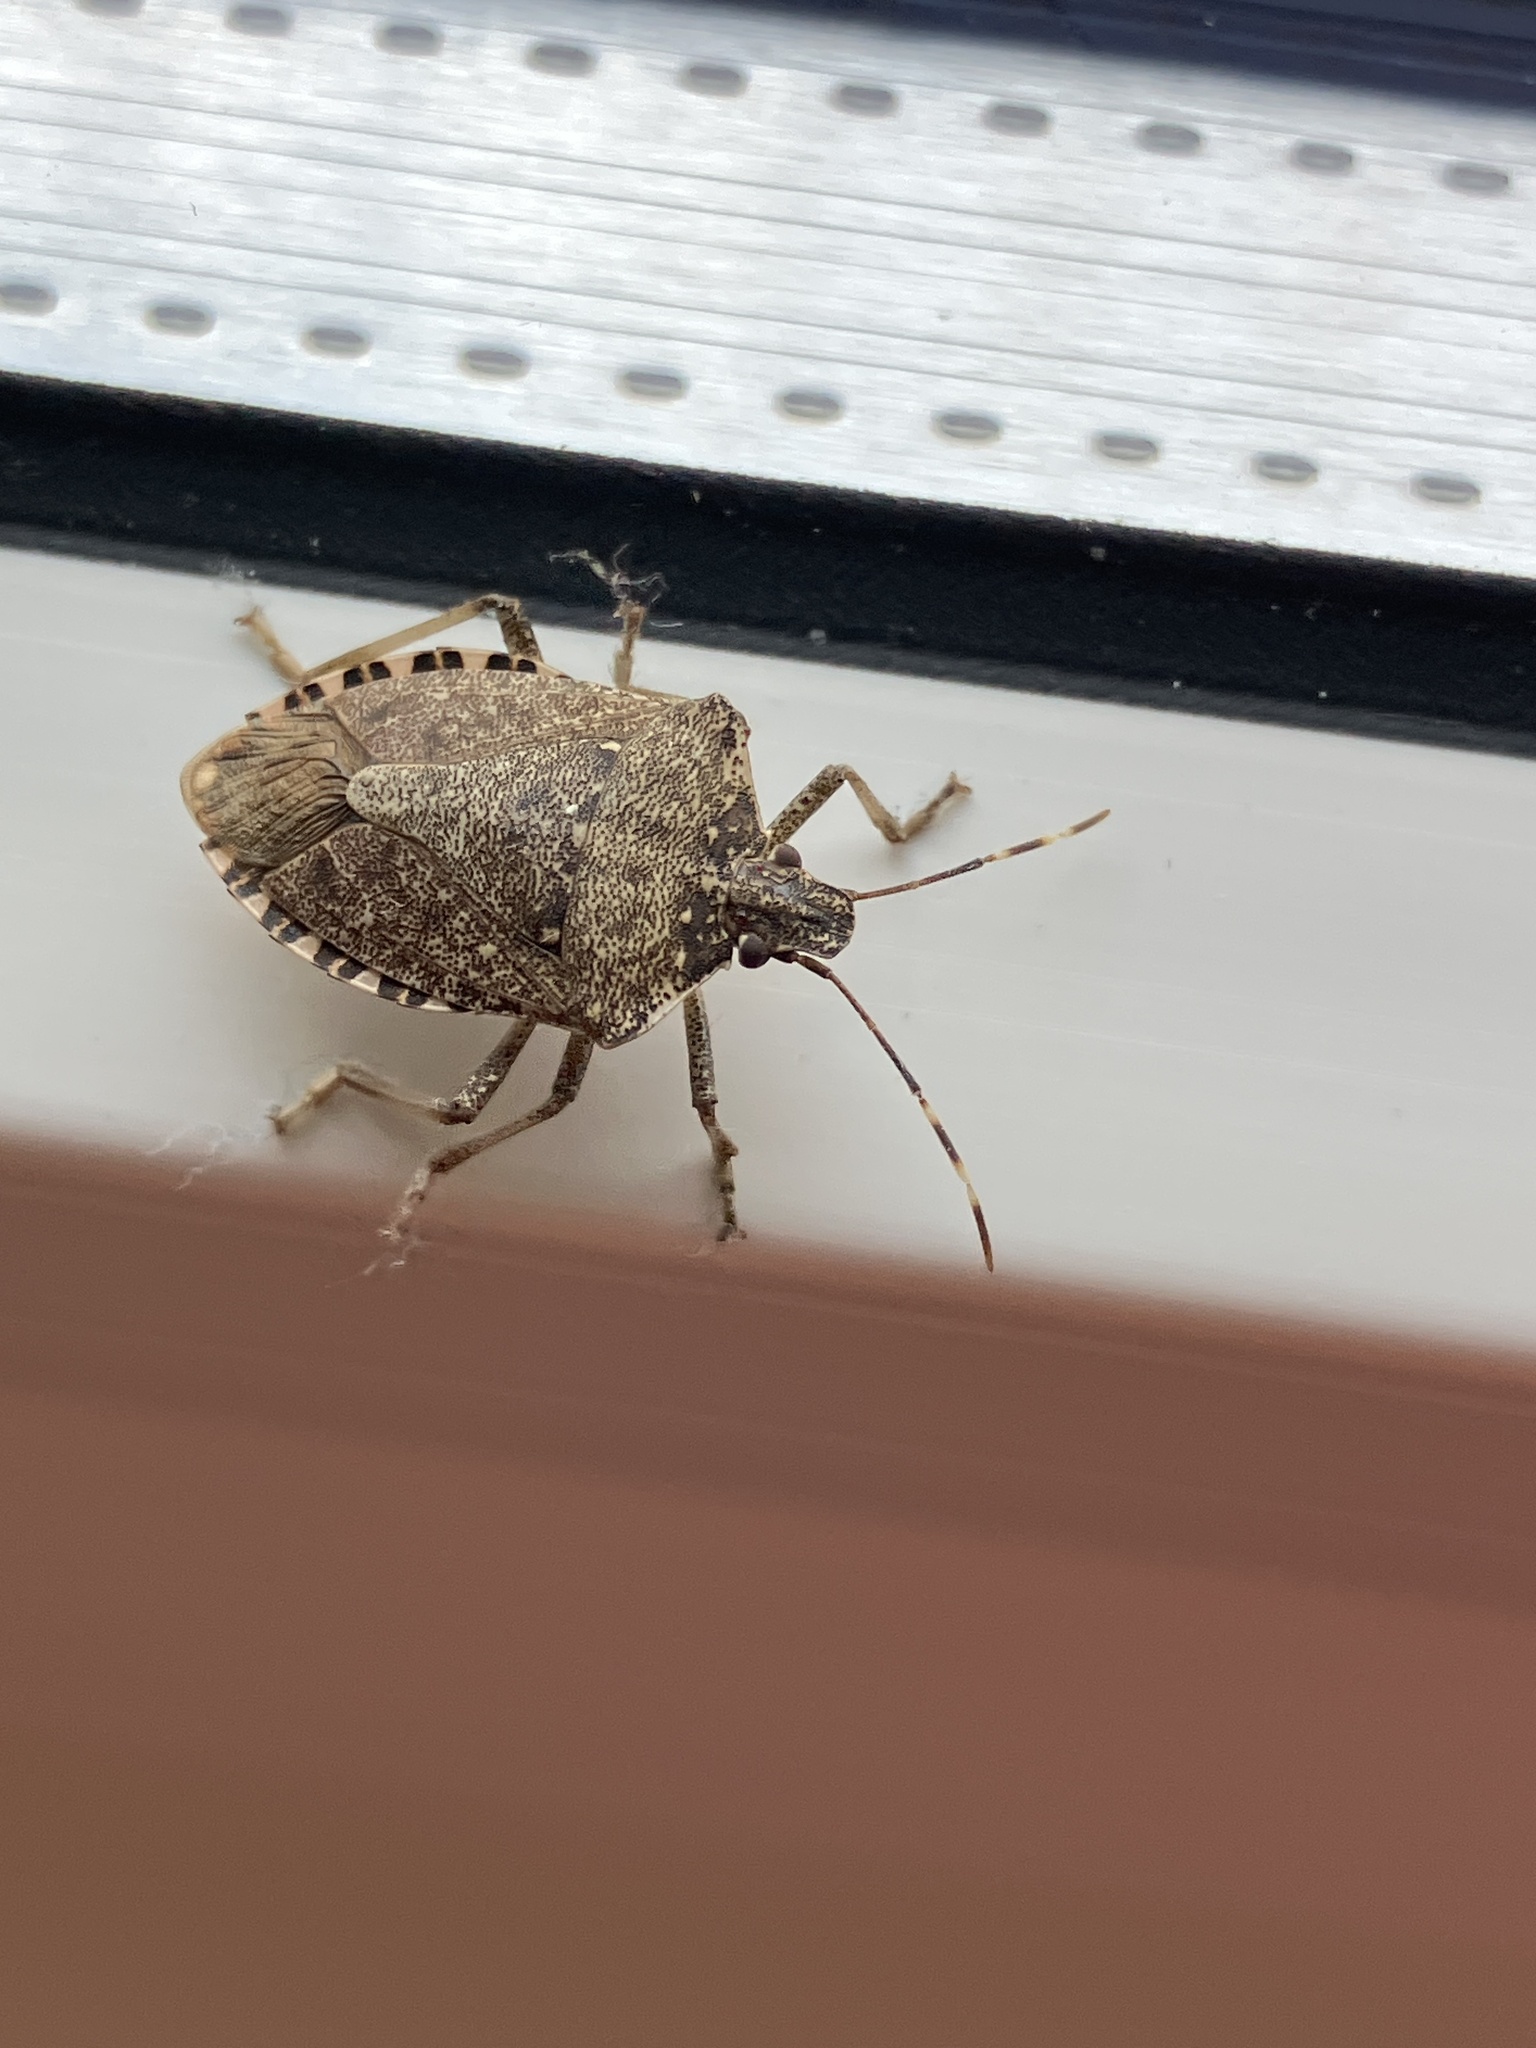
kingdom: Animalia
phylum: Arthropoda
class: Insecta
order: Hemiptera
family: Pentatomidae
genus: Halyomorpha
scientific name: Halyomorpha halys
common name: Brown marmorated stink bug
